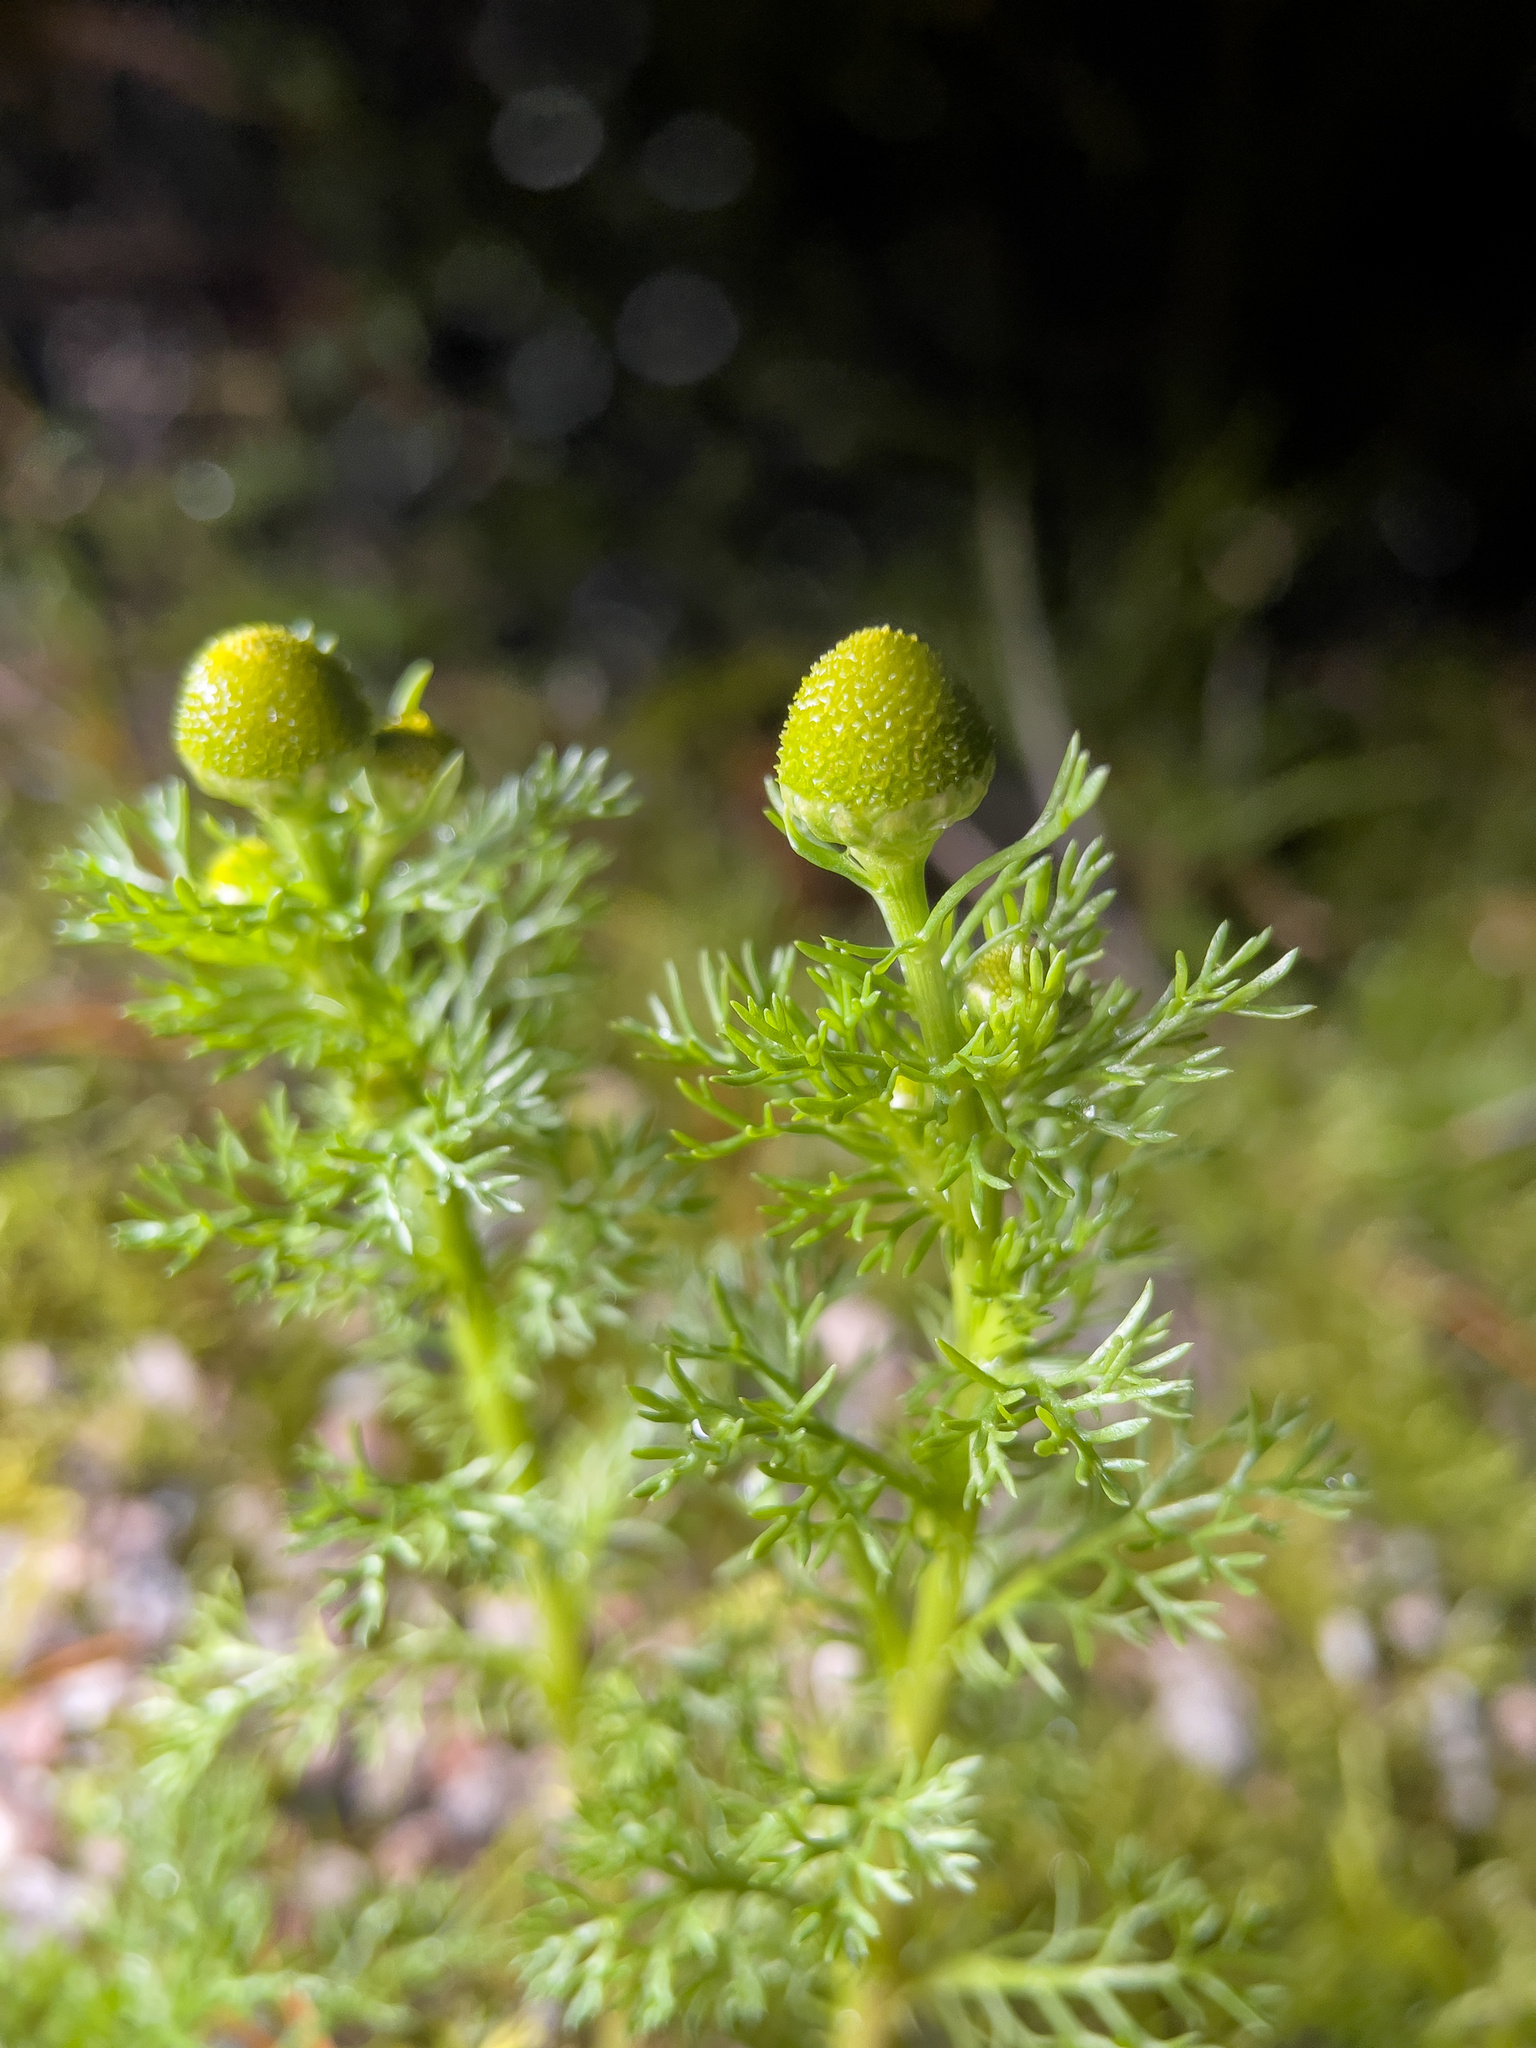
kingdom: Plantae
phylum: Tracheophyta
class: Magnoliopsida
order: Asterales
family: Asteraceae
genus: Matricaria
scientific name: Matricaria discoidea
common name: Disc mayweed
